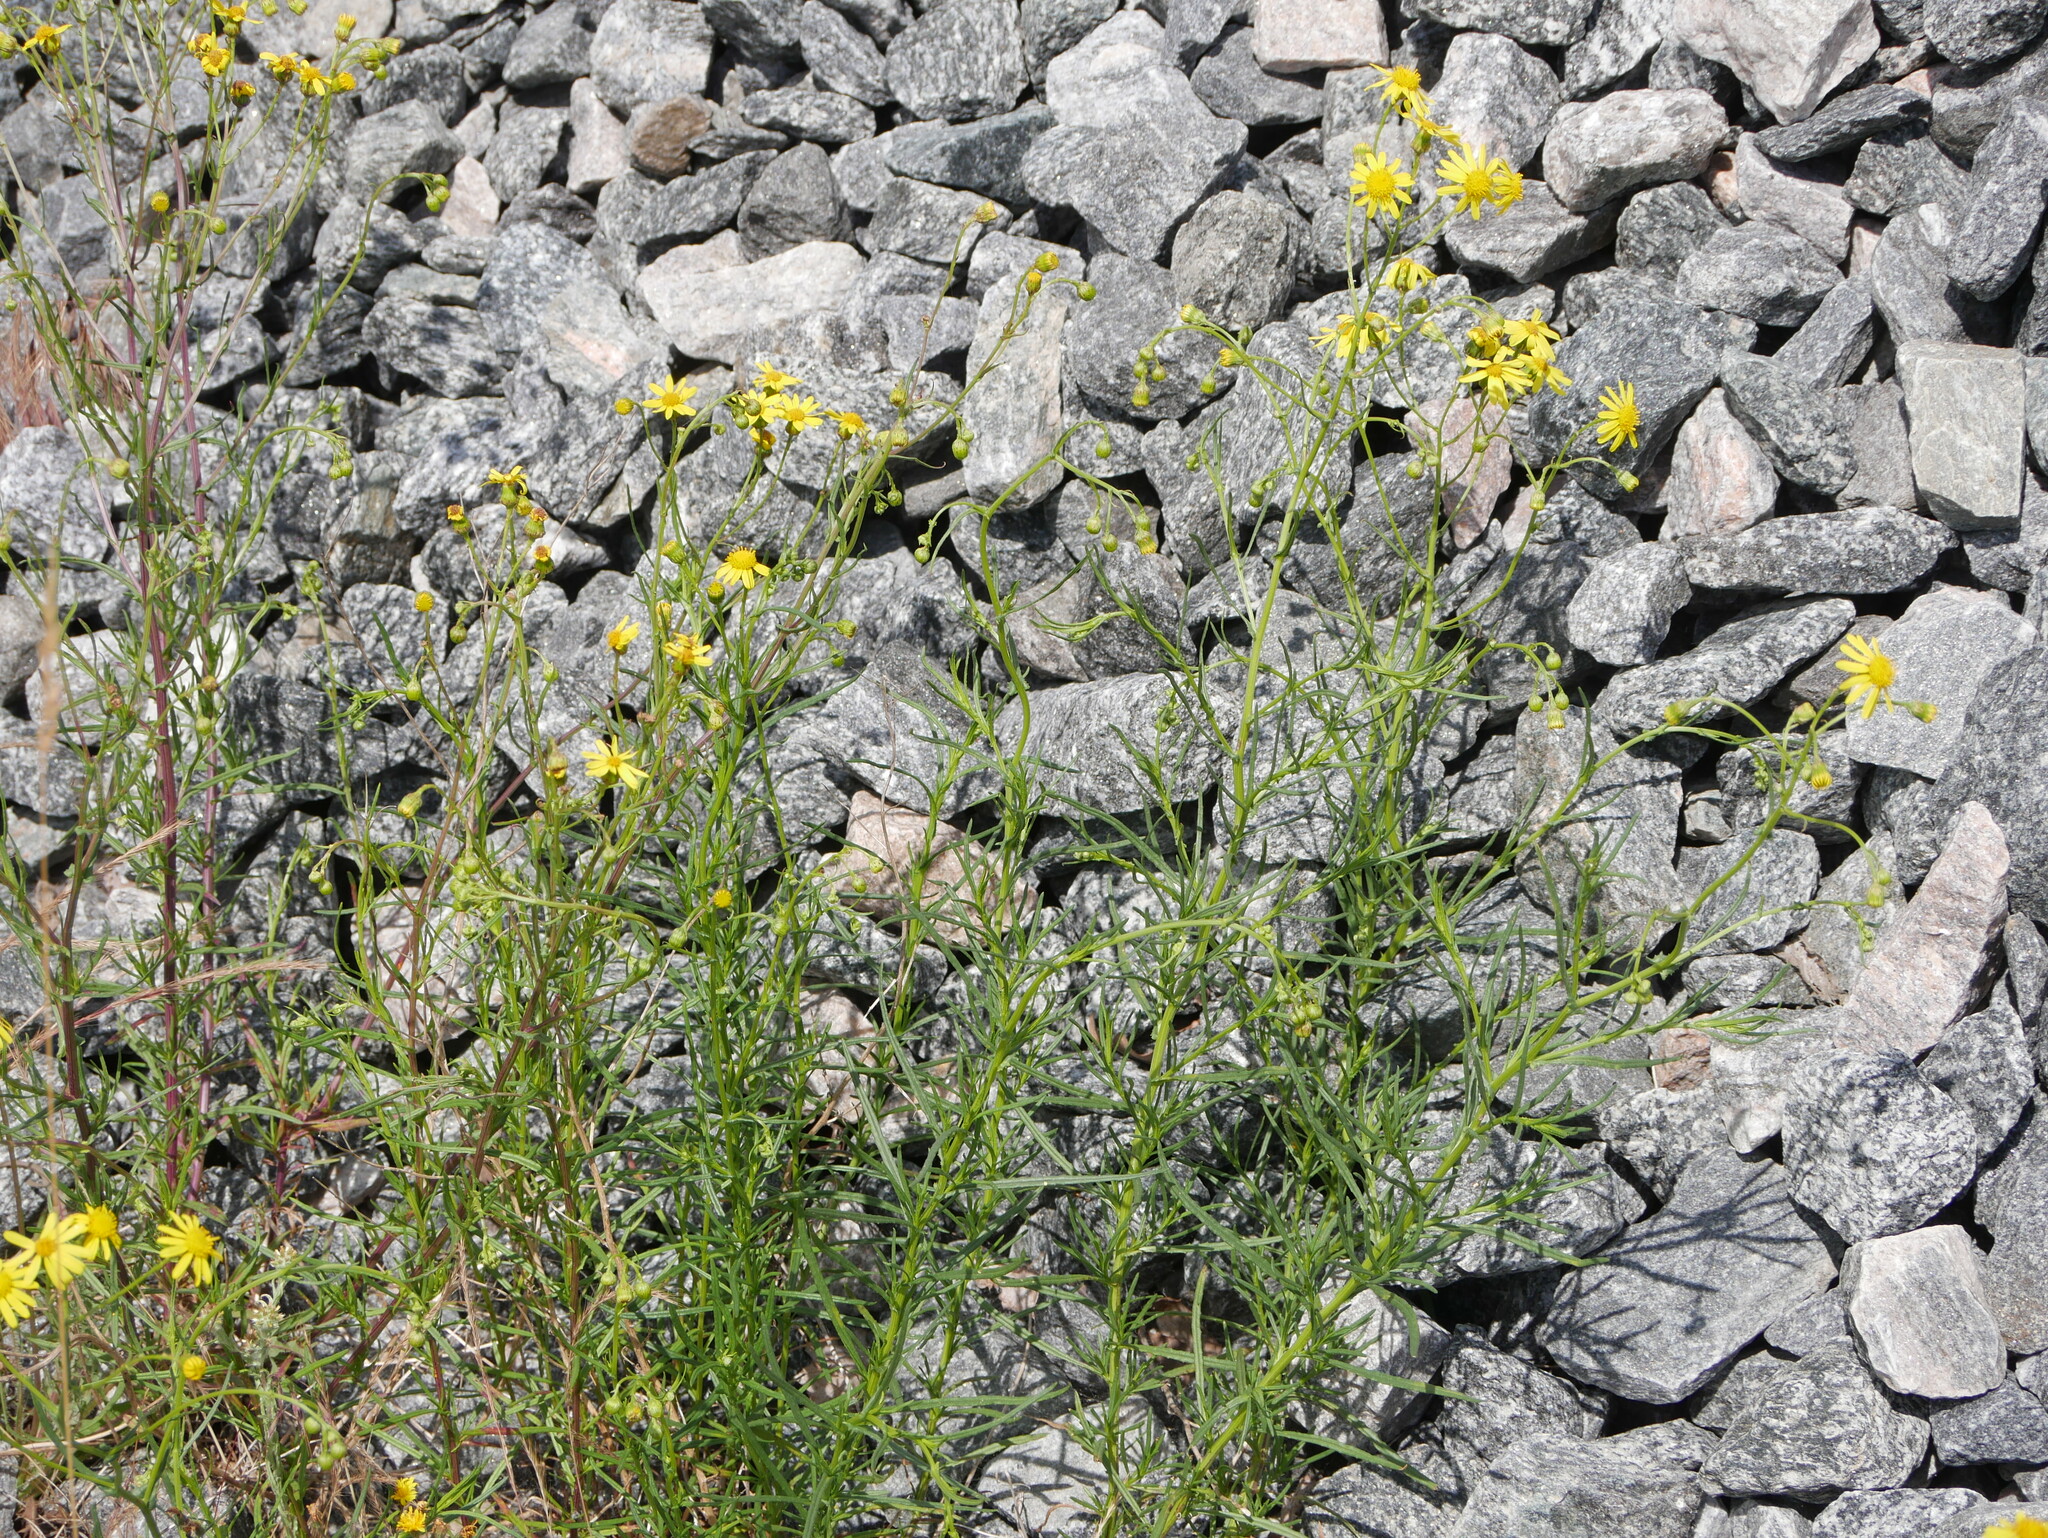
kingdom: Plantae
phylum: Tracheophyta
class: Magnoliopsida
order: Asterales
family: Asteraceae
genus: Senecio
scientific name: Senecio inaequidens
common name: Narrow-leaved ragwort
